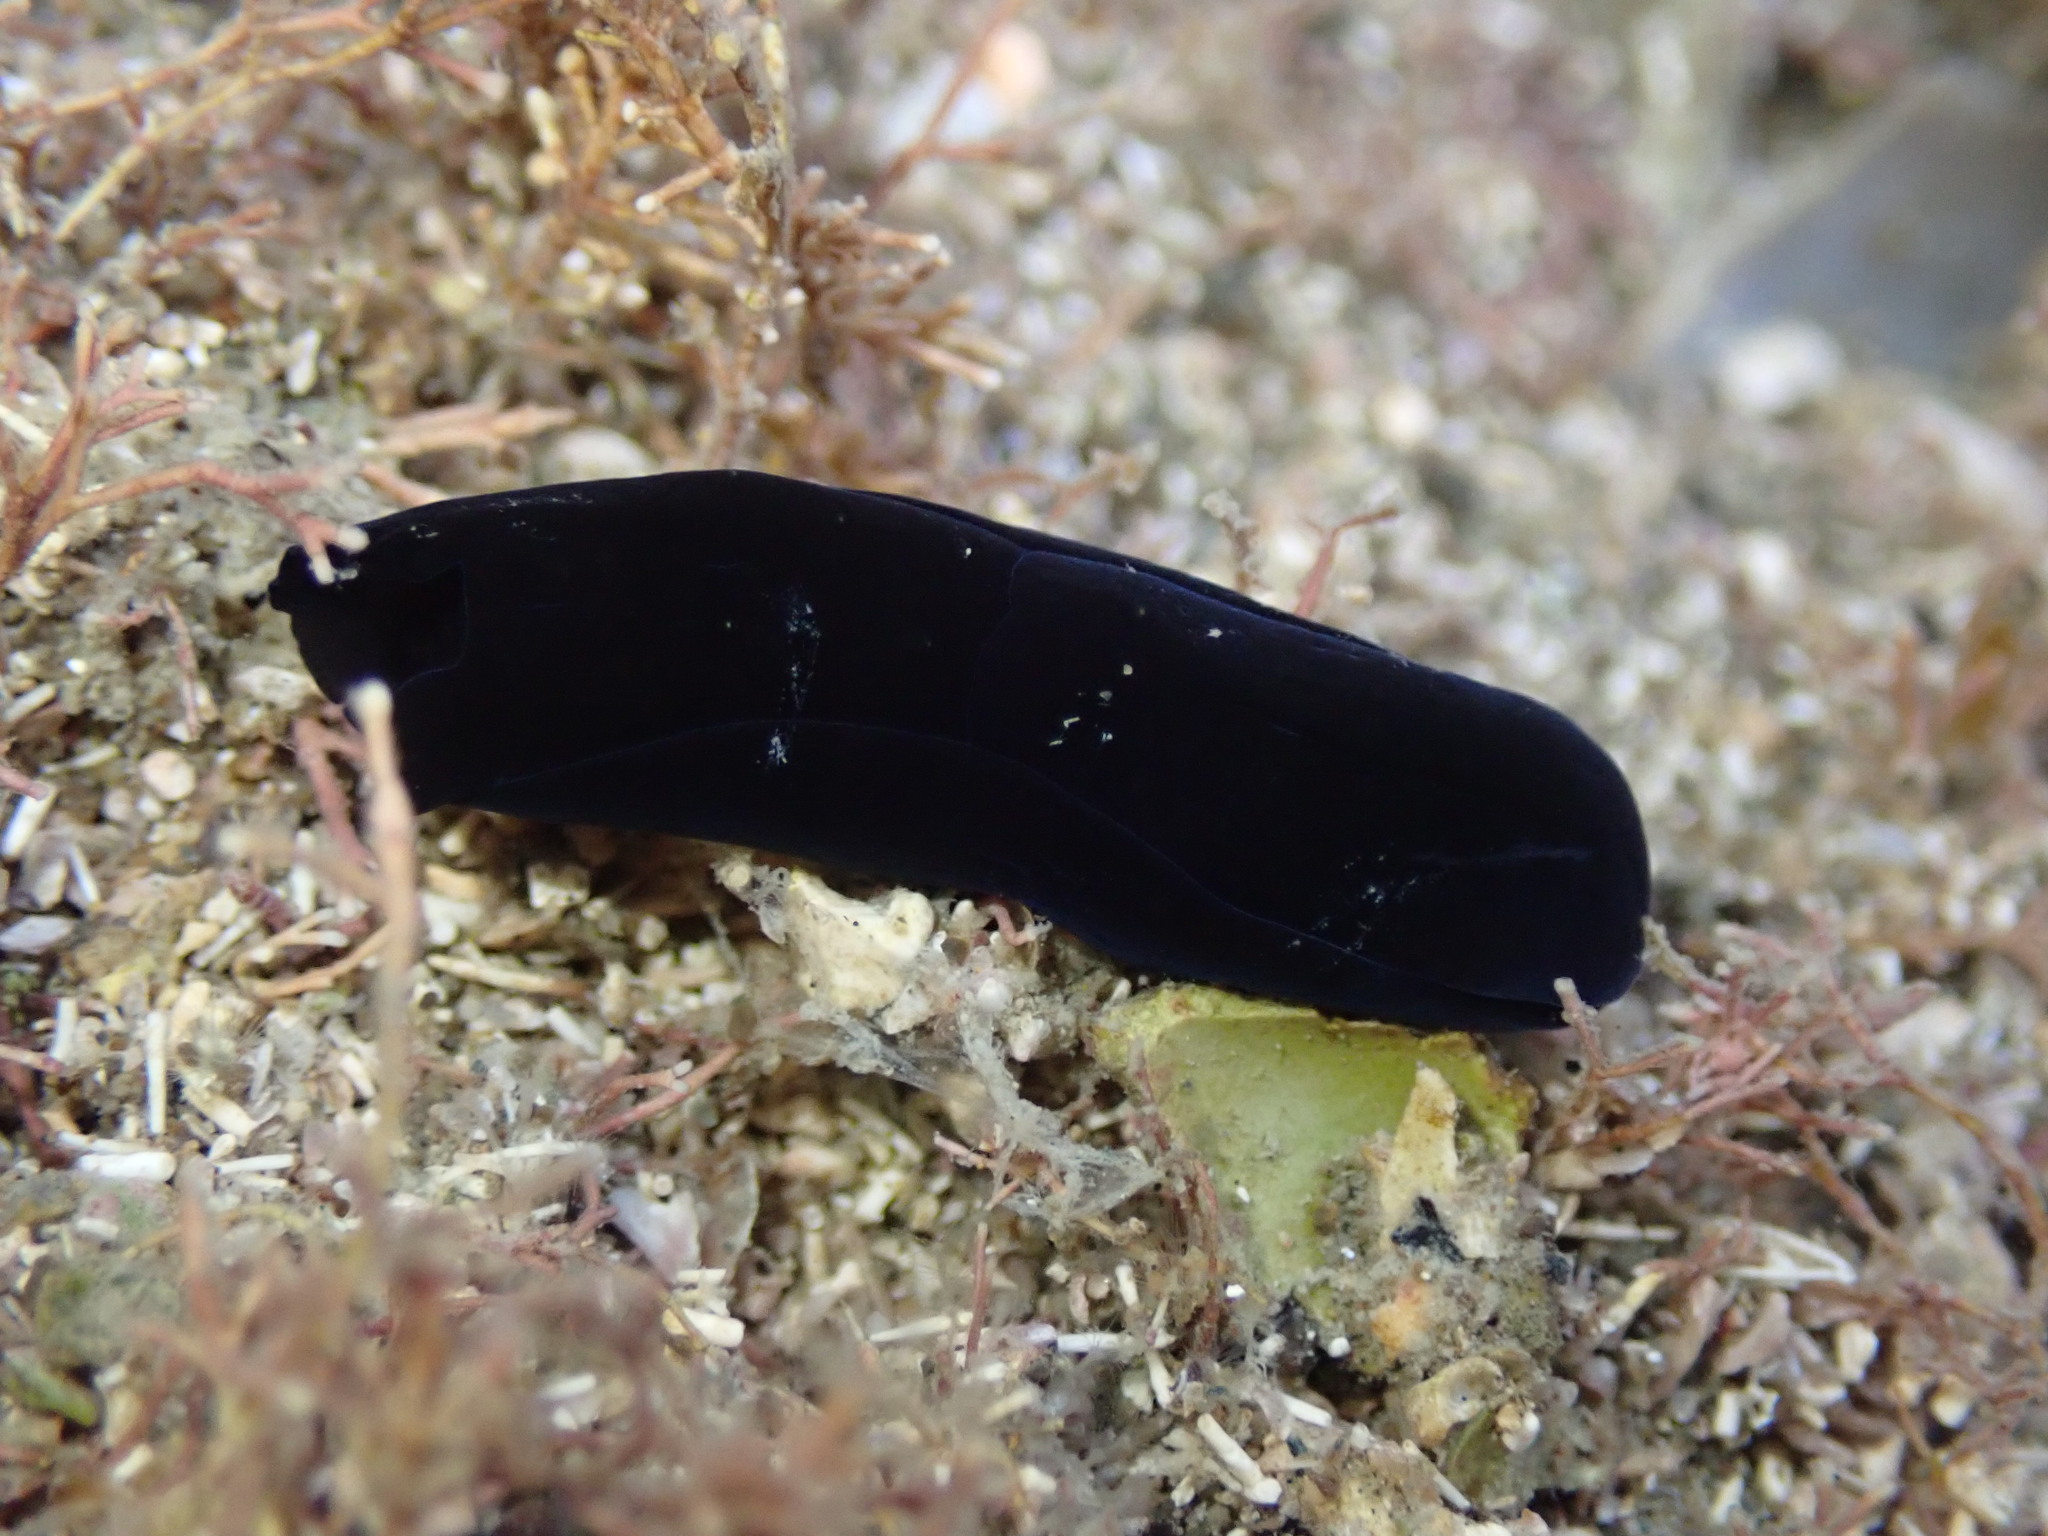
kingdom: Animalia
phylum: Mollusca
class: Gastropoda
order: Cephalaspidea
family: Aglajidae
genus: Melanochlamys
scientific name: Melanochlamys cylindrica
